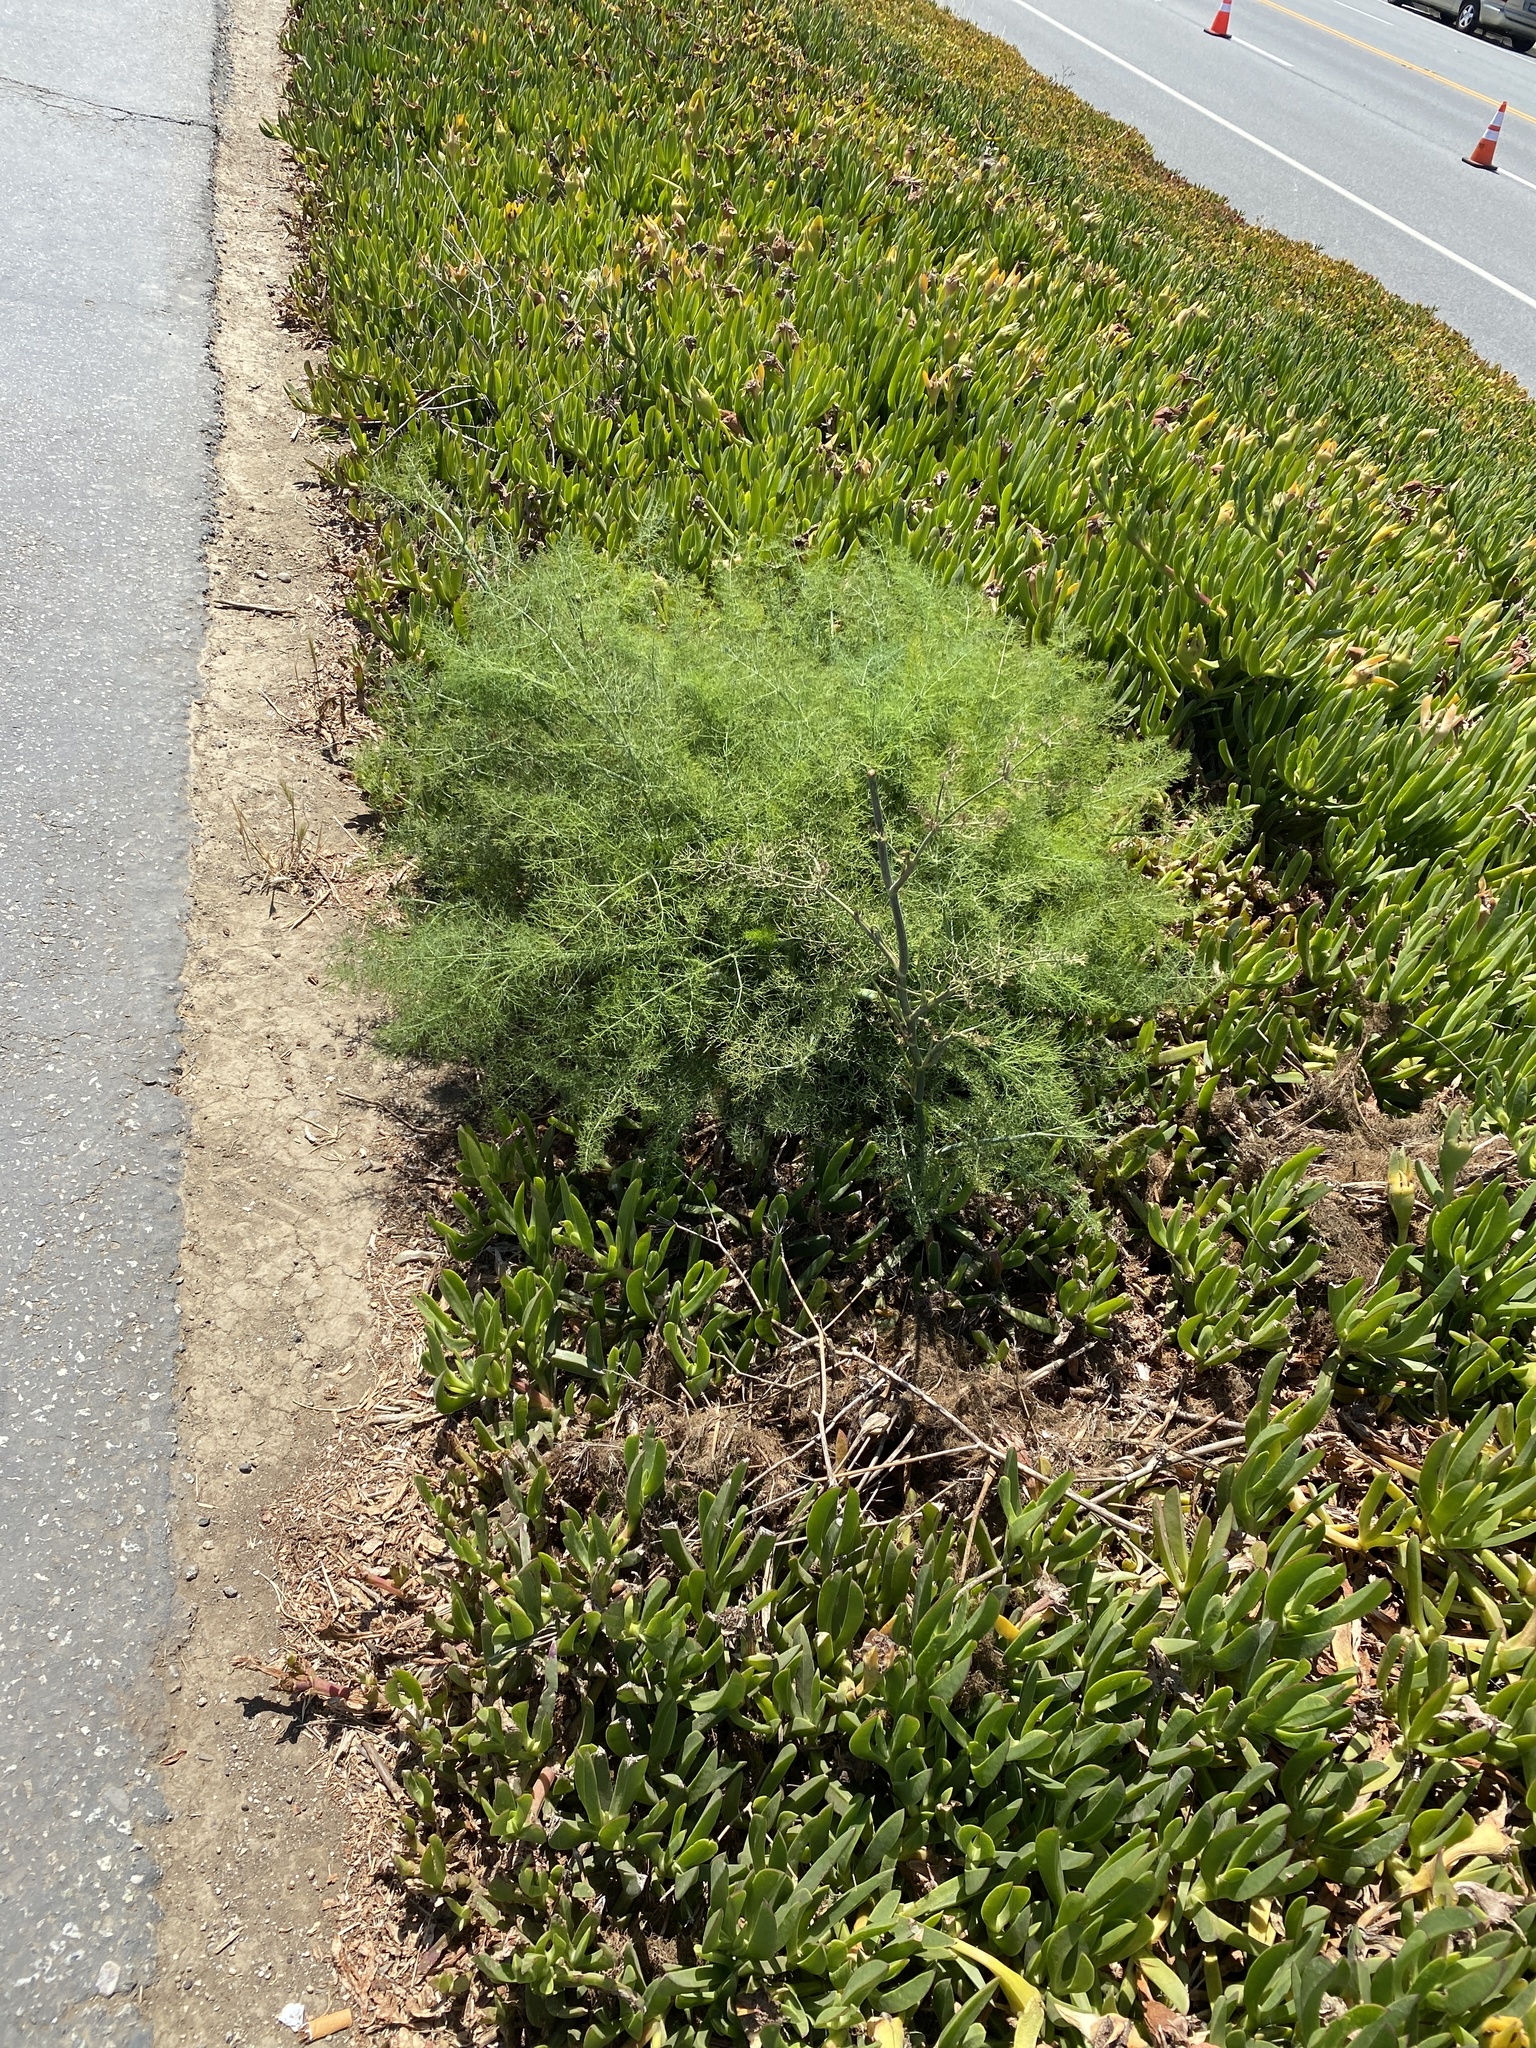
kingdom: Plantae
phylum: Tracheophyta
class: Magnoliopsida
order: Apiales
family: Apiaceae
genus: Foeniculum
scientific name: Foeniculum vulgare
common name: Fennel
